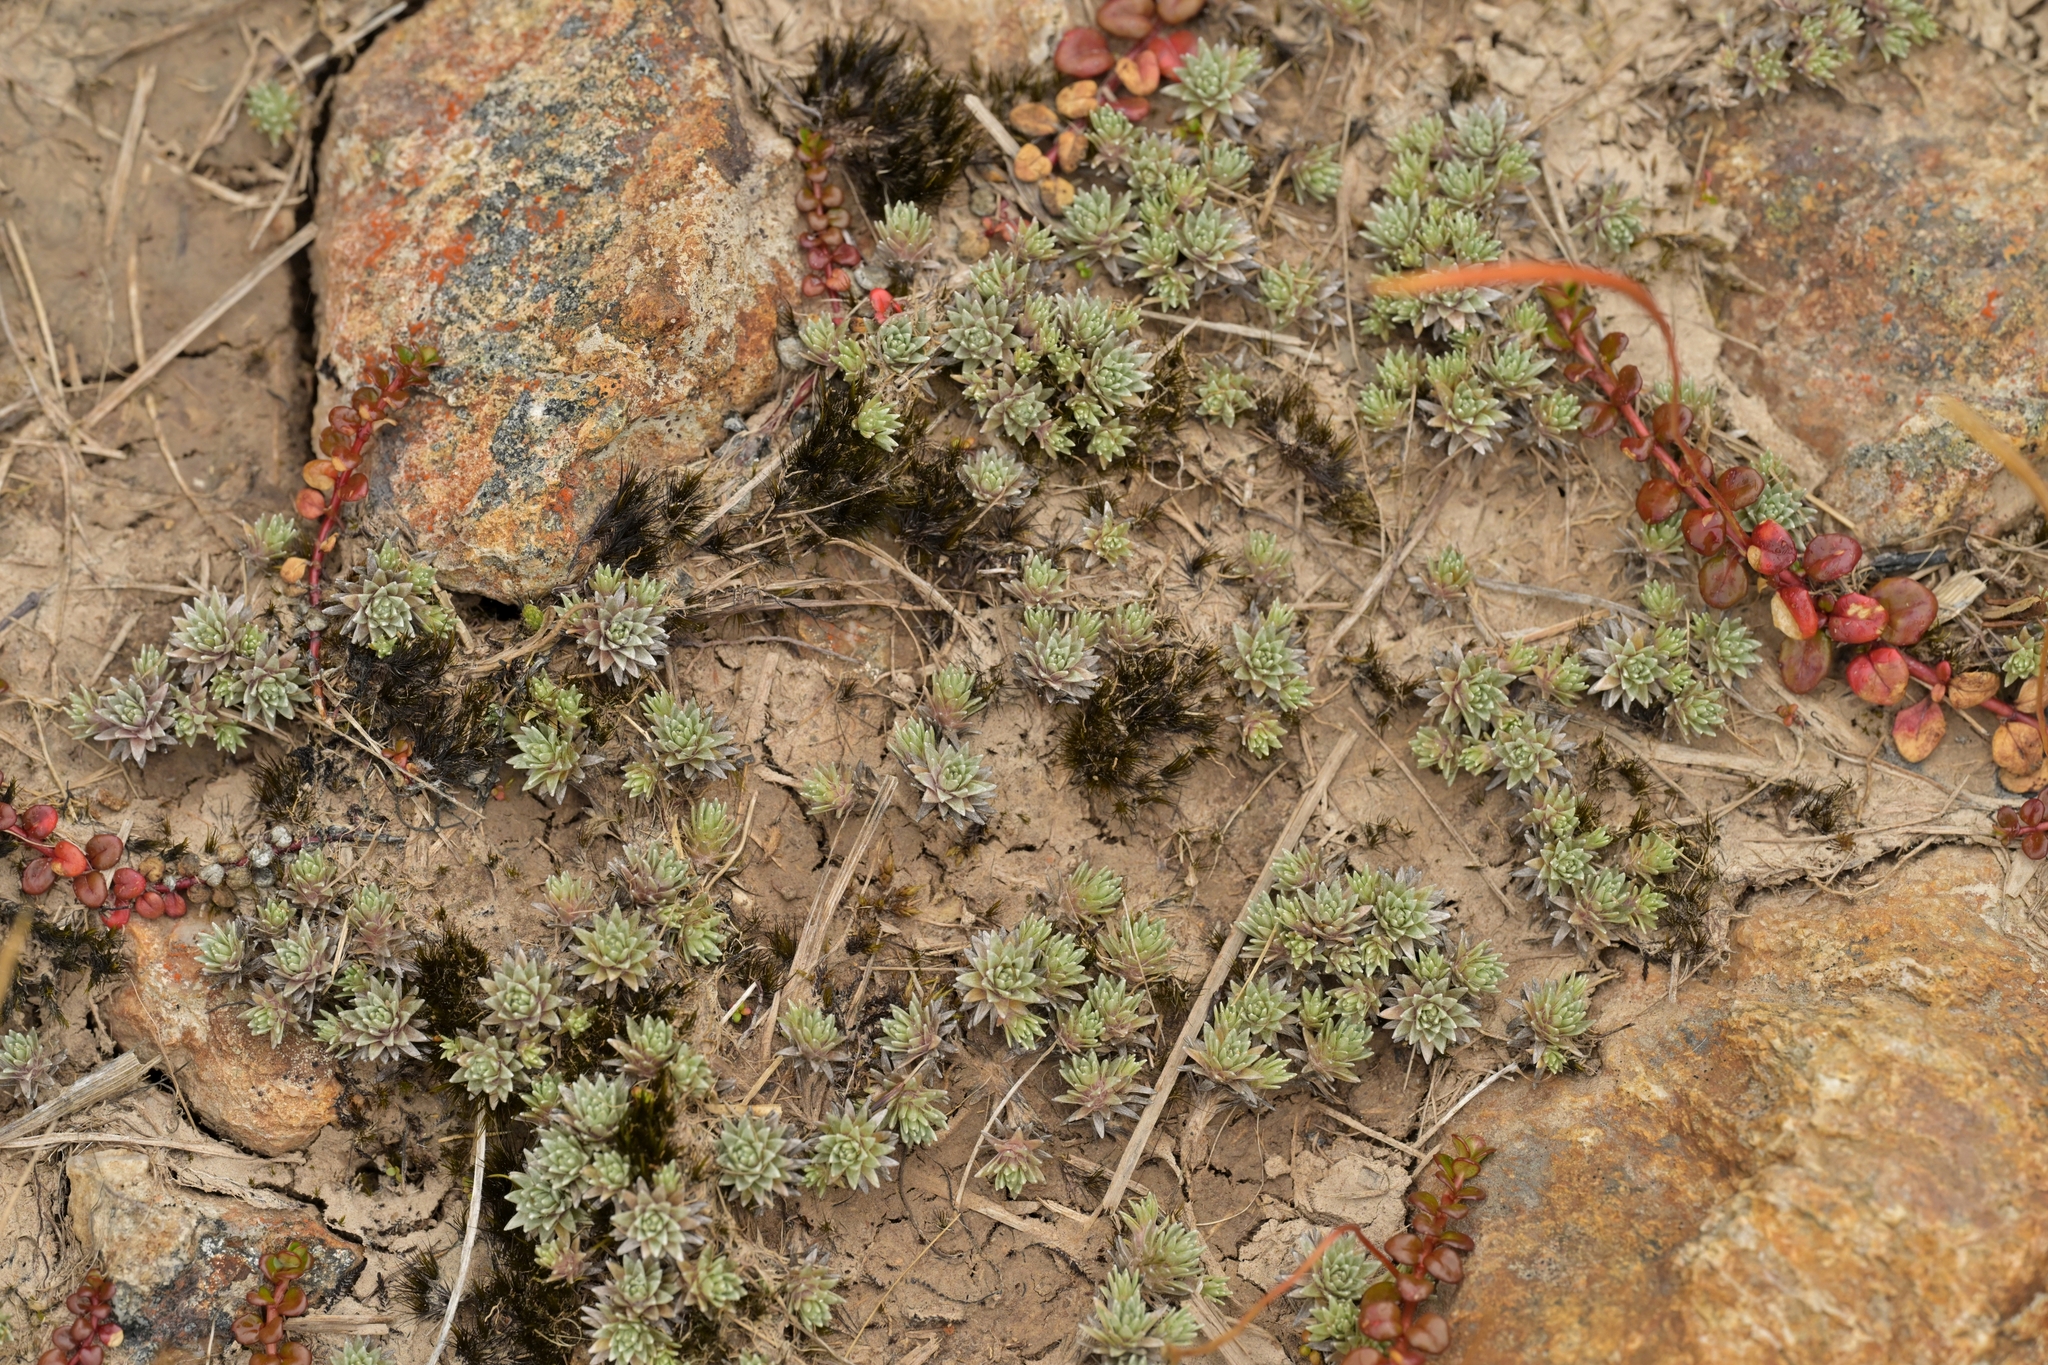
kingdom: Plantae
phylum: Tracheophyta
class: Magnoliopsida
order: Asterales
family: Asteraceae
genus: Raoulia
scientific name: Raoulia grandiflora
